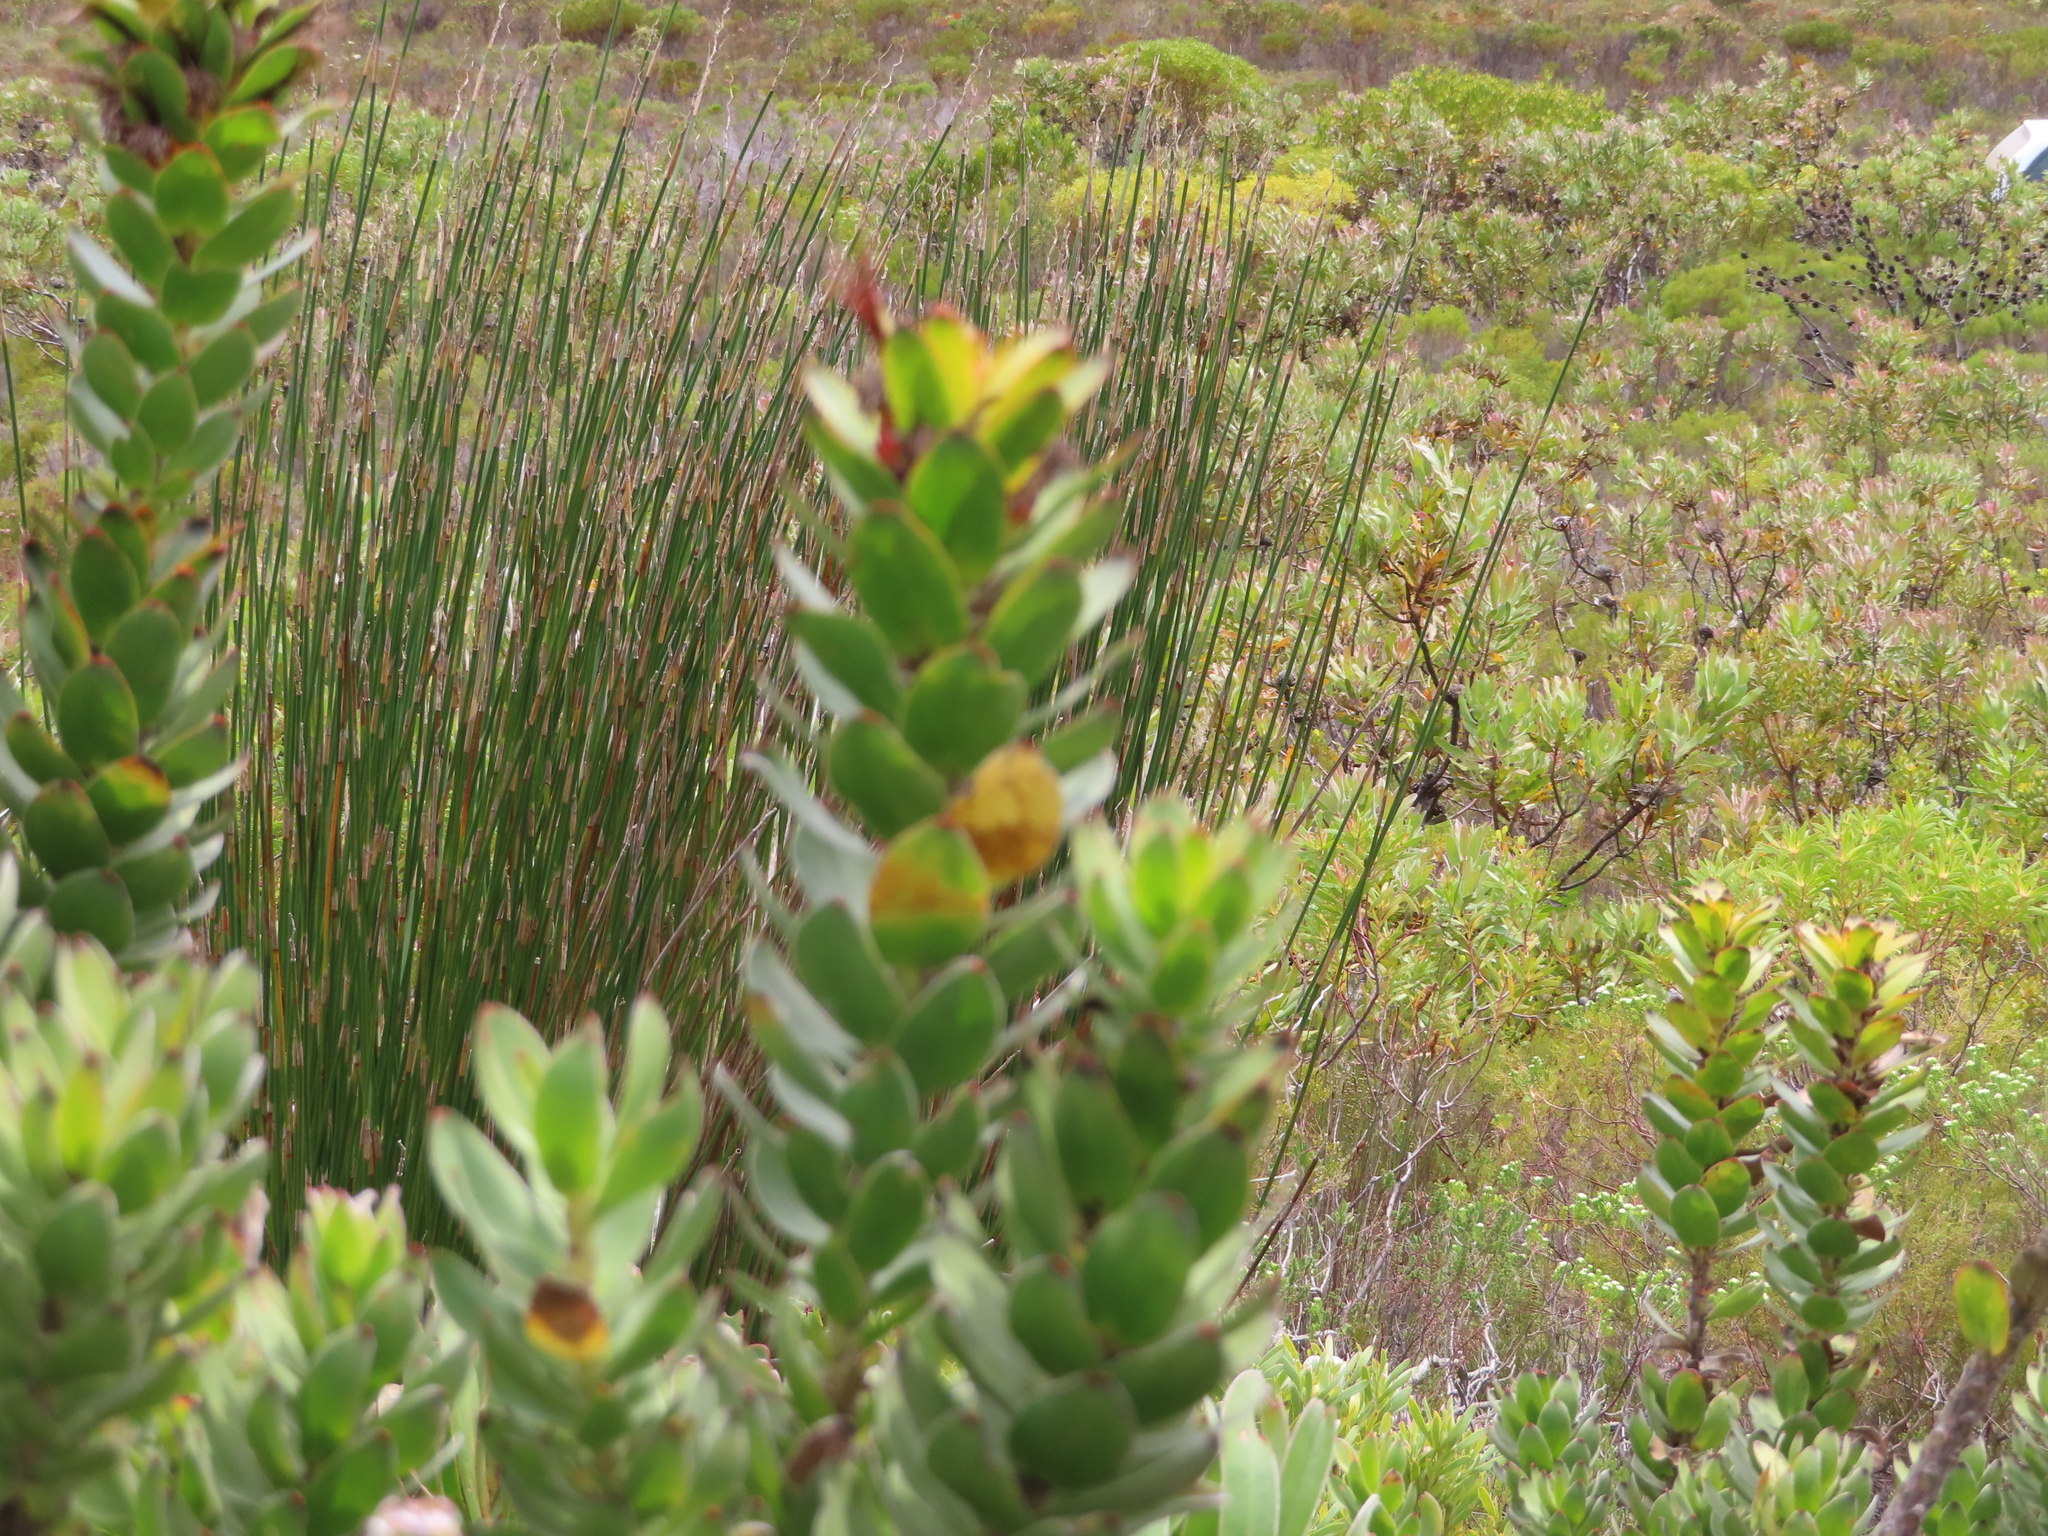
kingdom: Plantae
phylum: Tracheophyta
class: Magnoliopsida
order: Proteales
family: Proteaceae
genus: Mimetes
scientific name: Mimetes saxatilis
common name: Limestone pagoda
